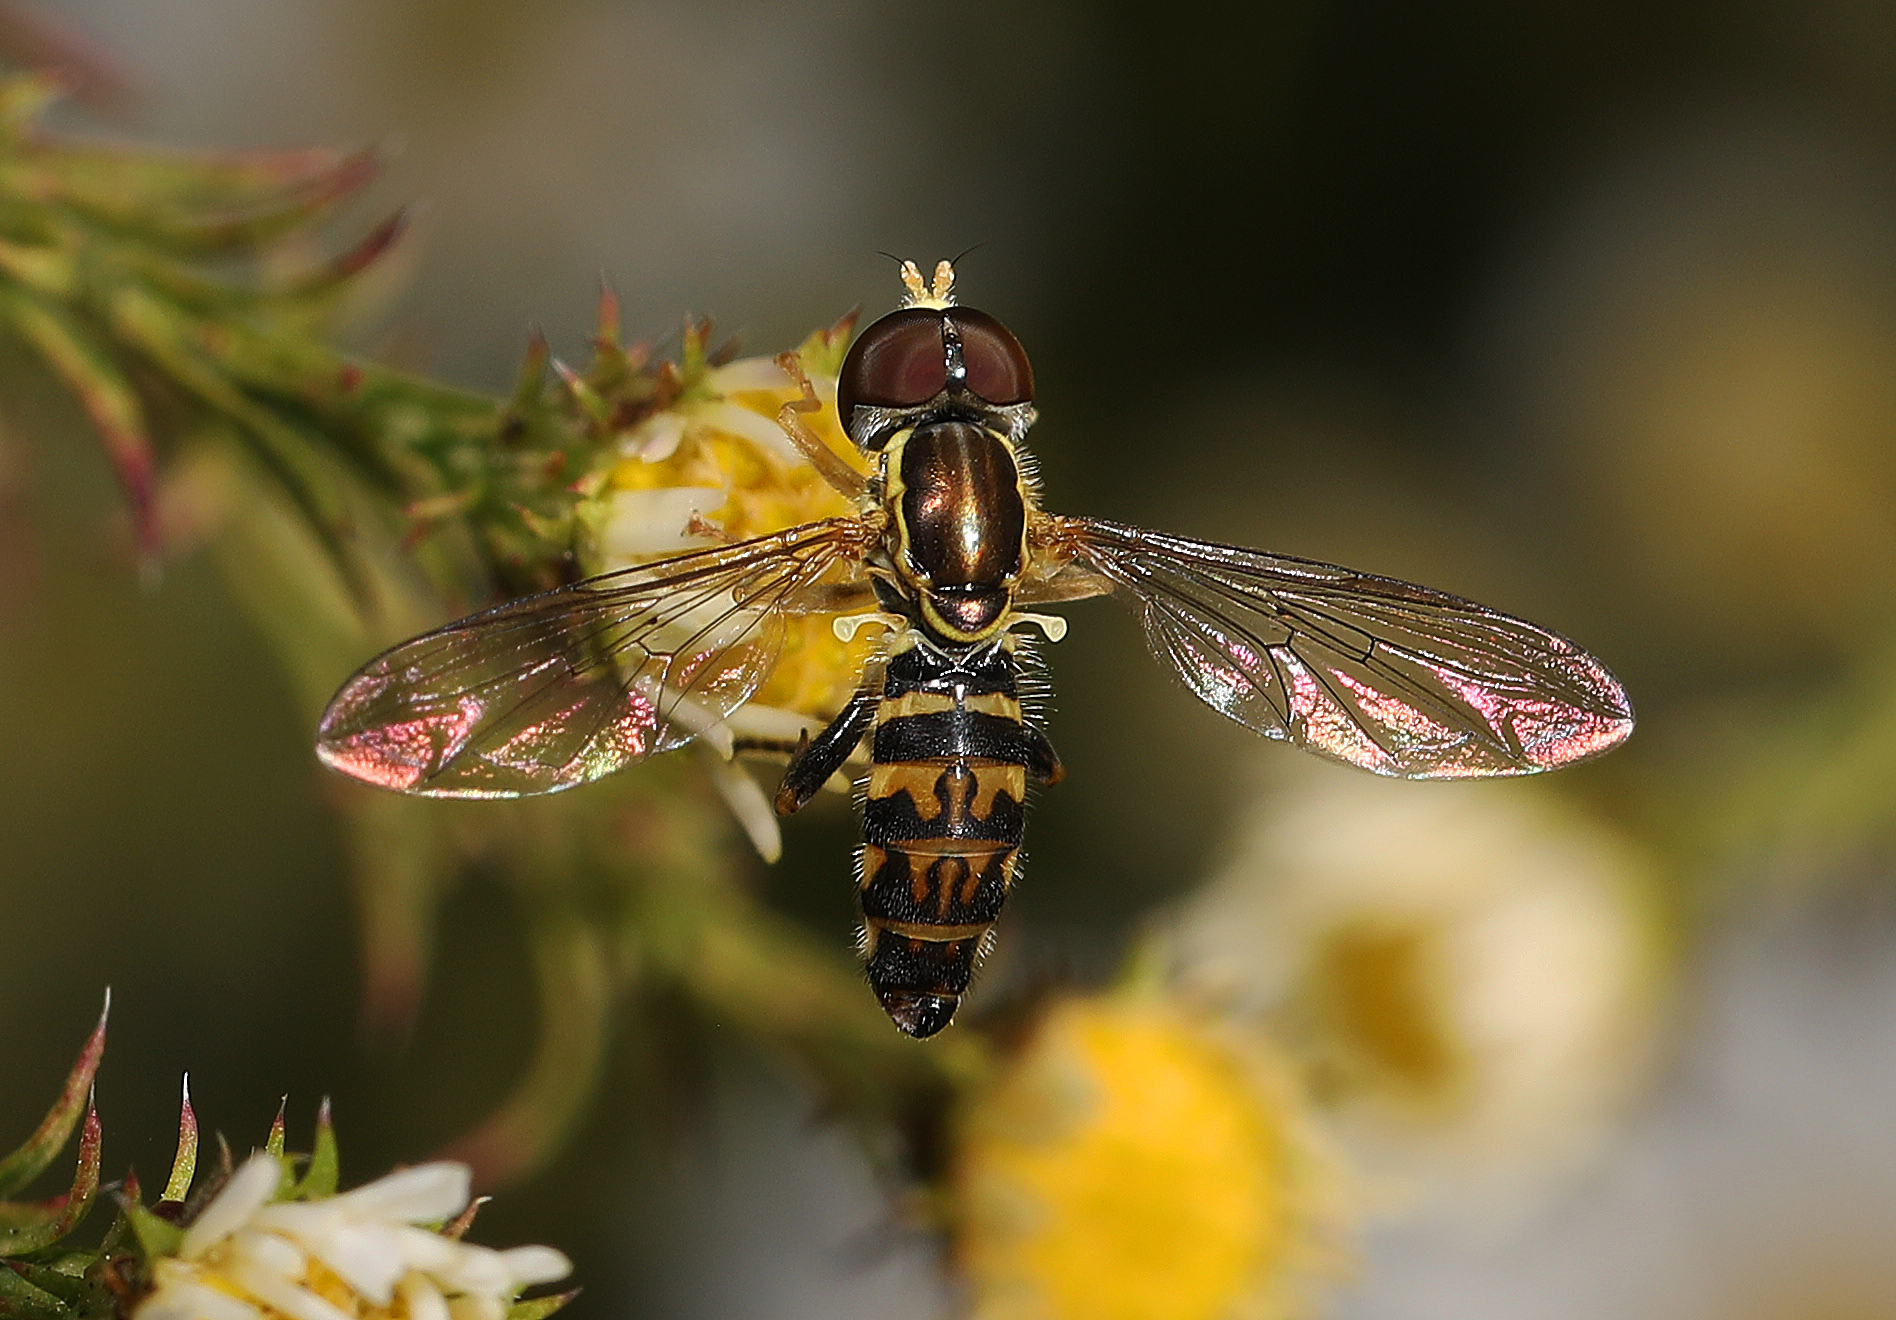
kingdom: Animalia
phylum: Arthropoda
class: Insecta
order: Diptera
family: Syrphidae
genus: Toxomerus
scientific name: Toxomerus geminatus
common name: Eastern calligrapher
